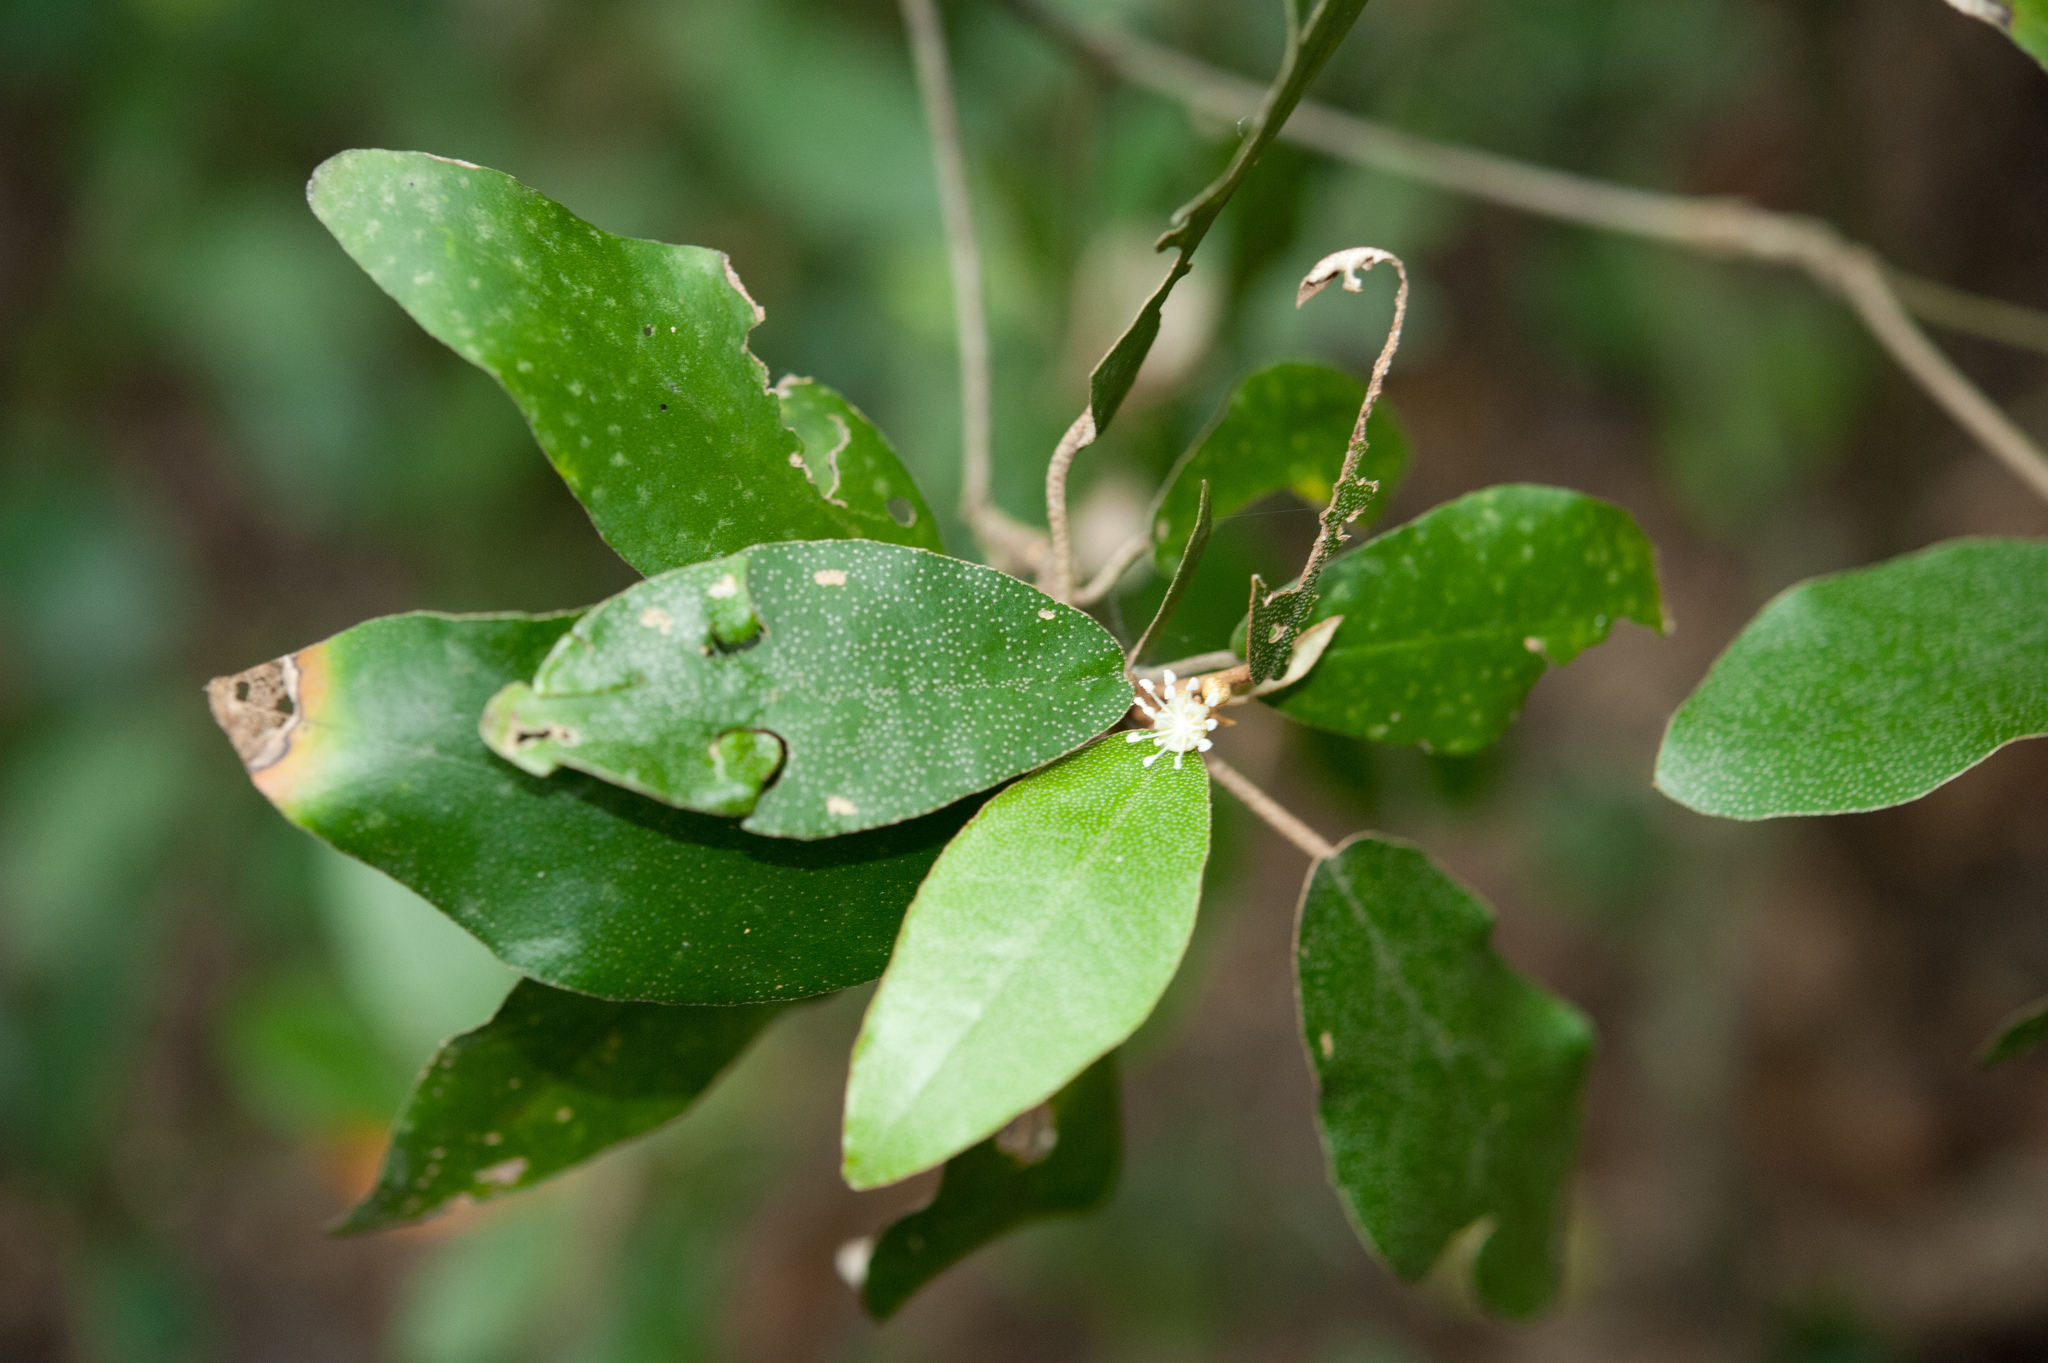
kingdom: Plantae
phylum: Tracheophyta
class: Magnoliopsida
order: Malpighiales
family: Euphorbiaceae
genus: Croton
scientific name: Croton cascarilloides
